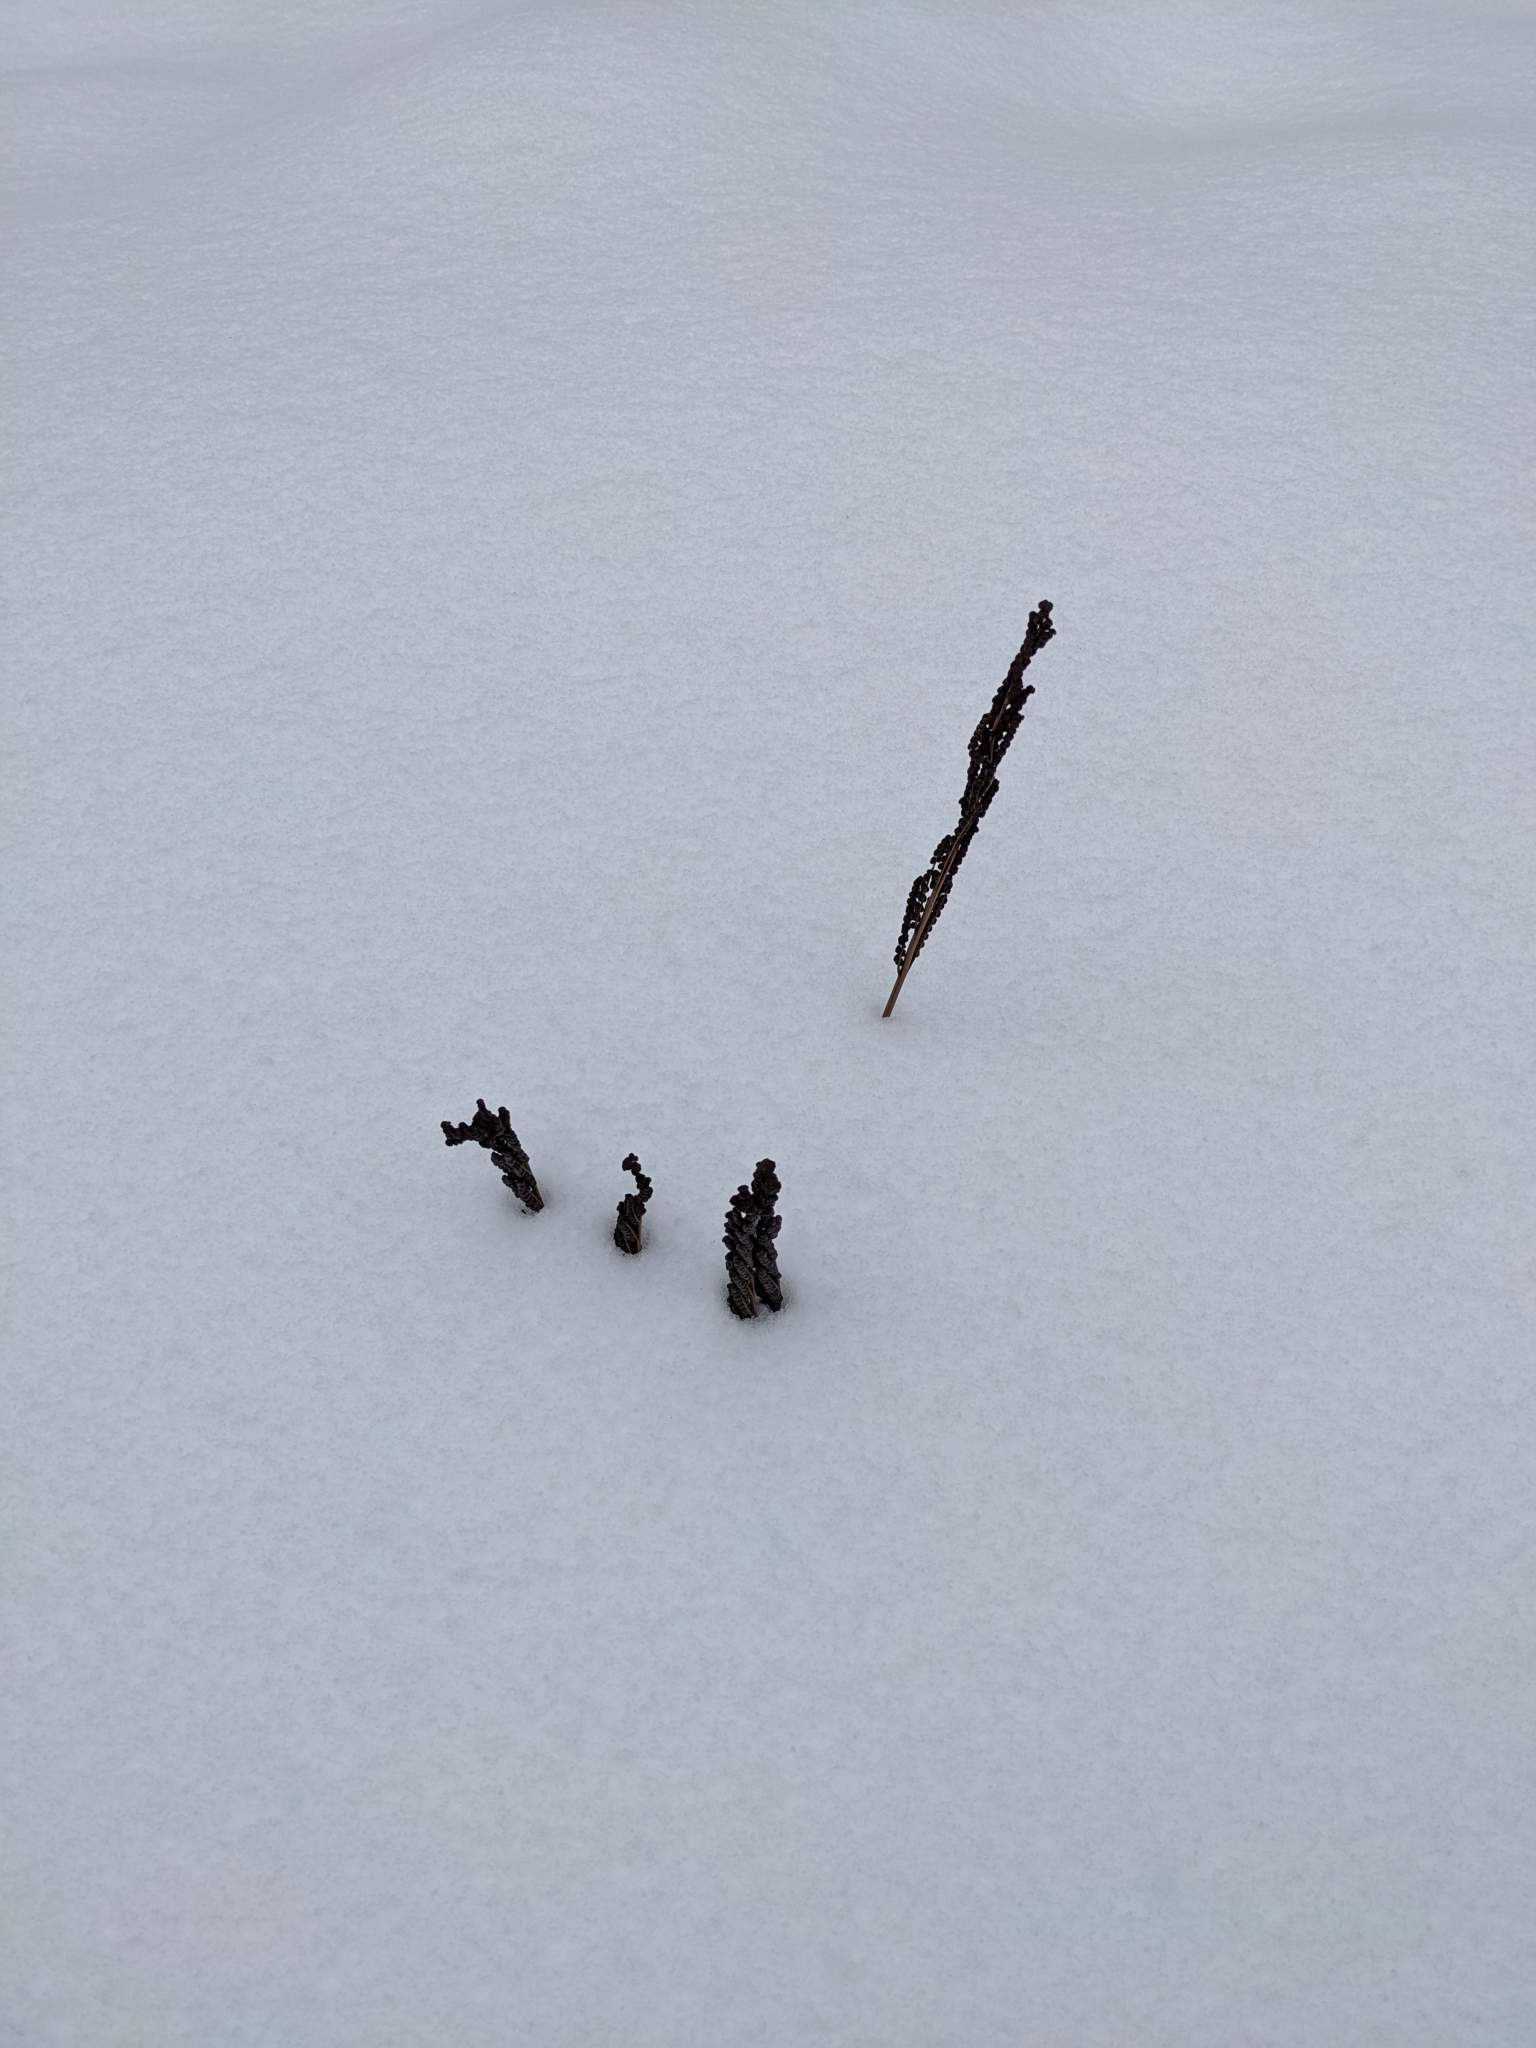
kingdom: Plantae
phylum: Tracheophyta
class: Polypodiopsida
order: Polypodiales
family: Onocleaceae
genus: Onoclea
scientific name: Onoclea sensibilis
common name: Sensitive fern
